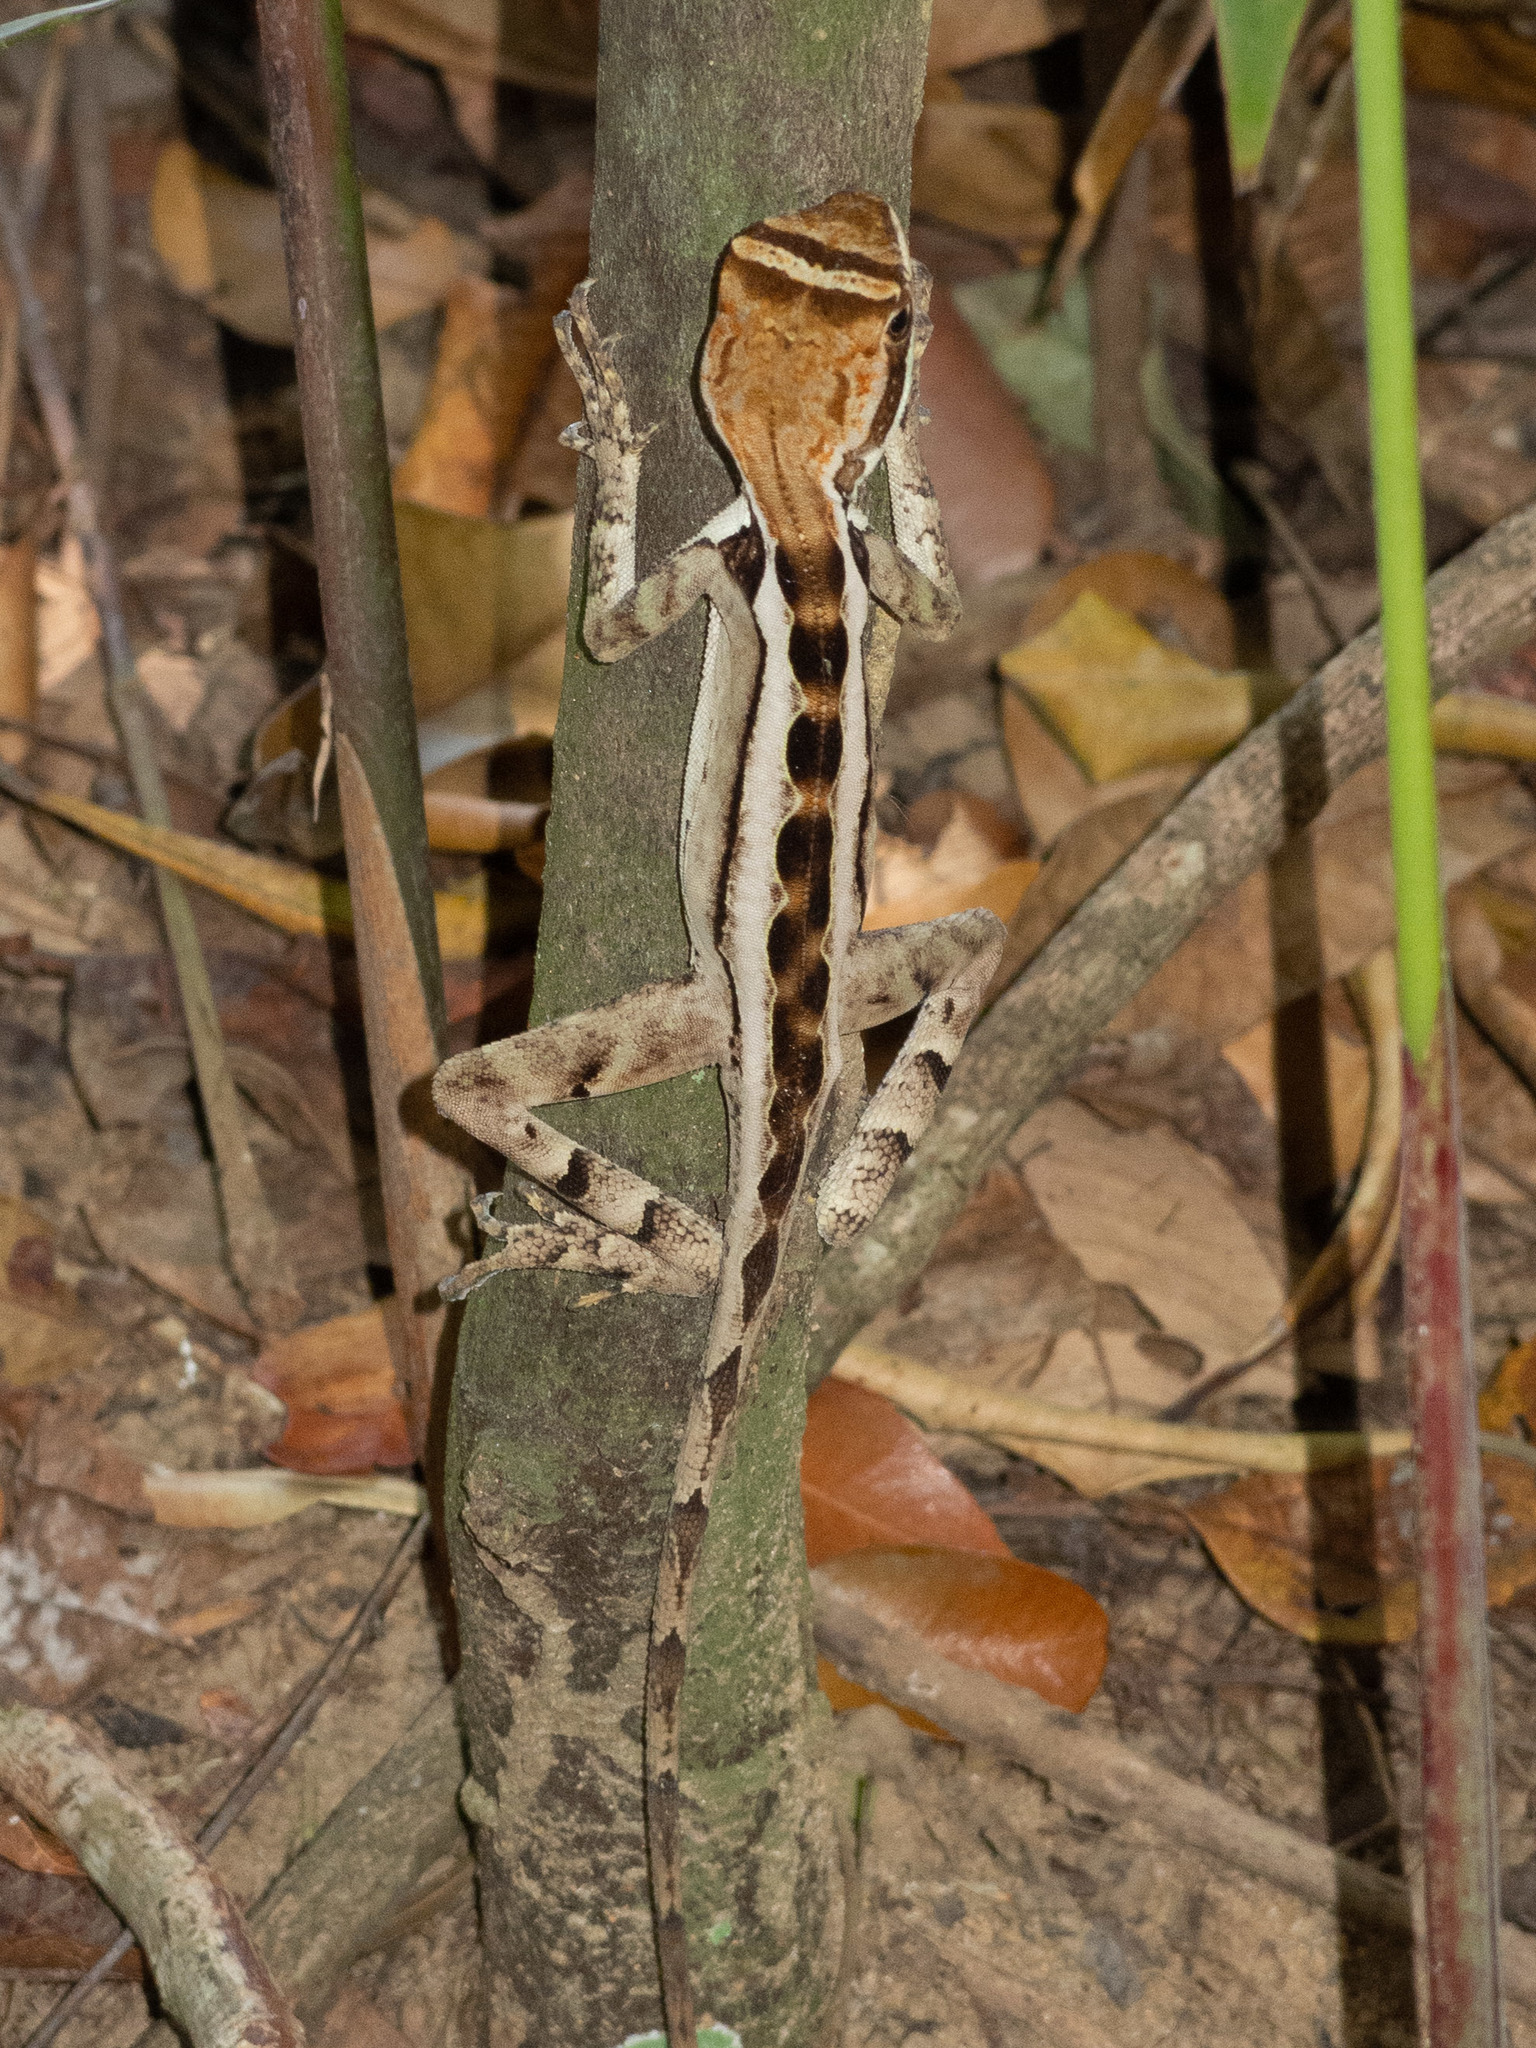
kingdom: Animalia
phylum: Chordata
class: Squamata
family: Leiosauridae
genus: Enyalius
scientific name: Enyalius catenatus
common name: Wied's fathead anole
